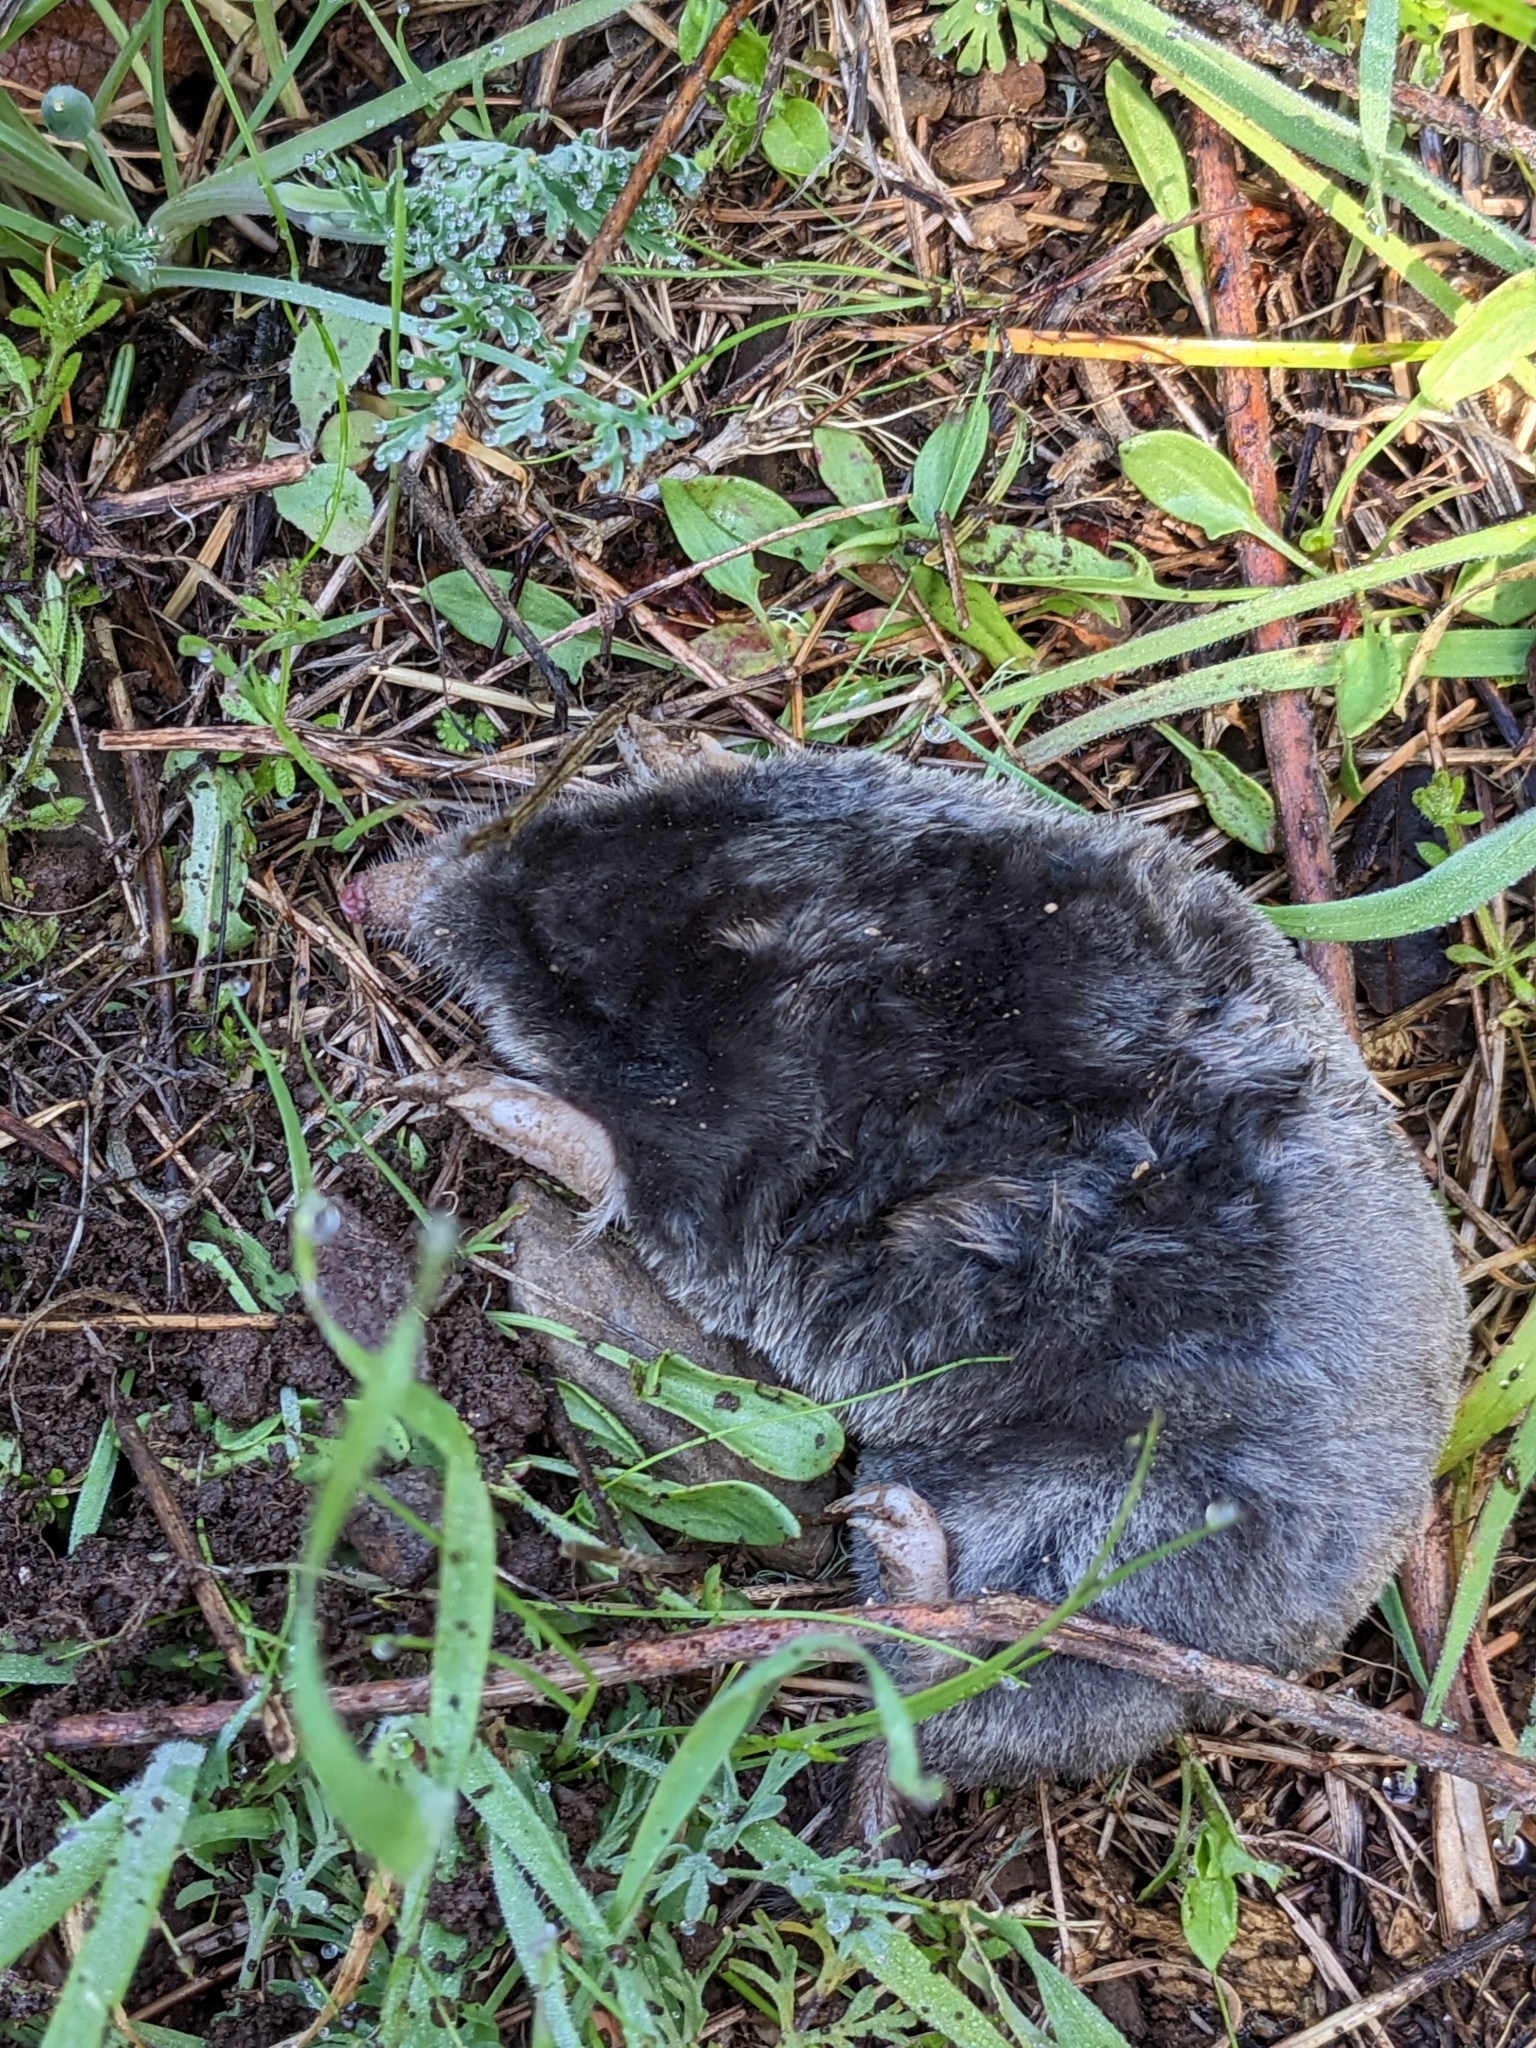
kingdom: Animalia
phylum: Chordata
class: Mammalia
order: Soricomorpha
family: Talpidae
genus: Scapanus
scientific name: Scapanus latimanus
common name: Broad-footed mole
